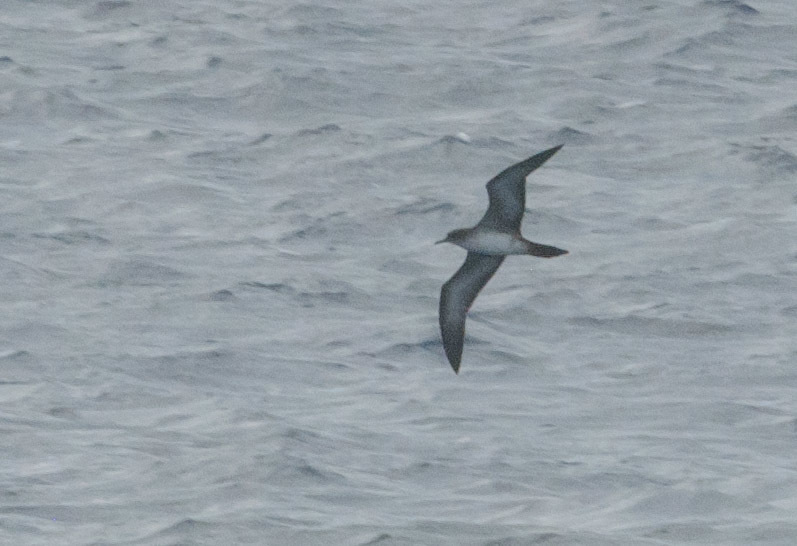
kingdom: Animalia
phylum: Chordata
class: Aves
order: Procellariiformes
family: Procellariidae
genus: Puffinus
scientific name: Puffinus pacificus
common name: Wedge-tailed shearwater
